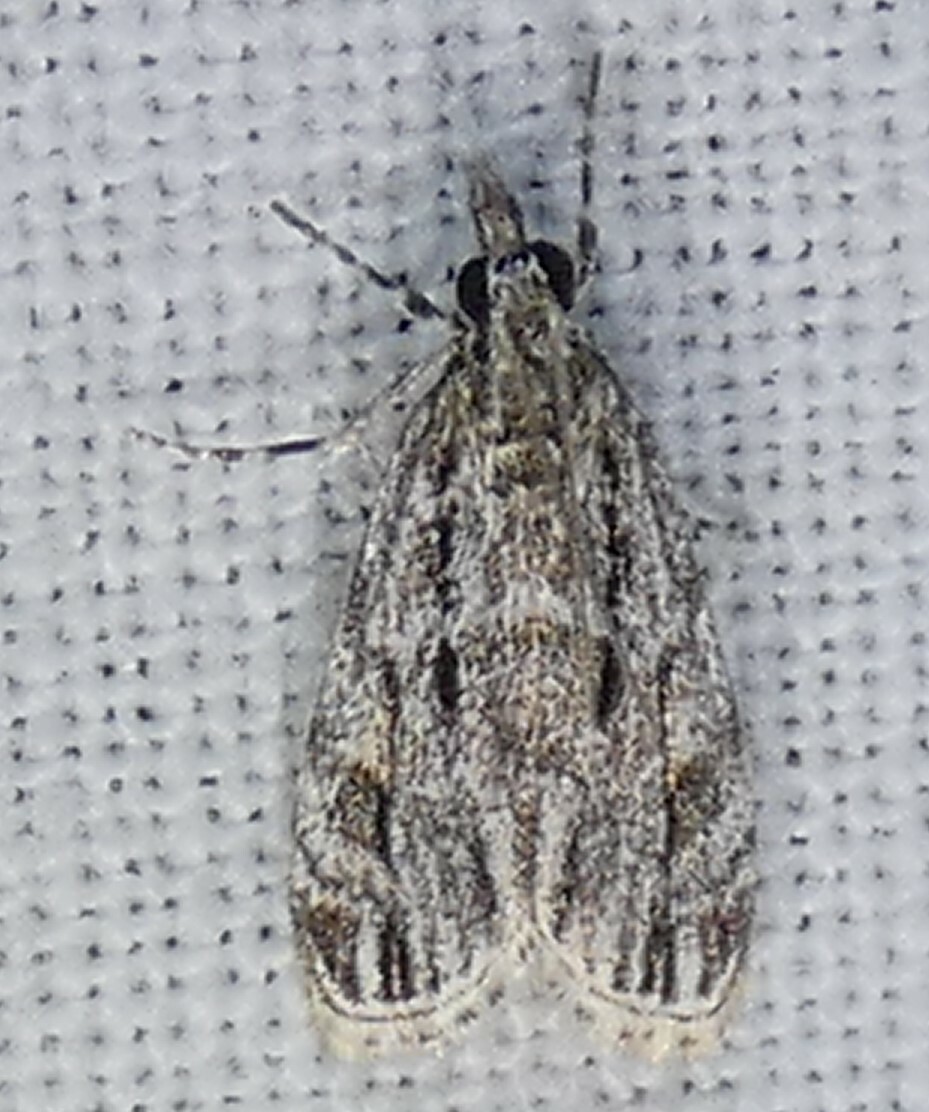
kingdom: Animalia
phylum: Arthropoda
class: Insecta
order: Lepidoptera
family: Crambidae
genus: Eudonia
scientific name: Eudonia strigalis
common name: Striped eudonia moth
